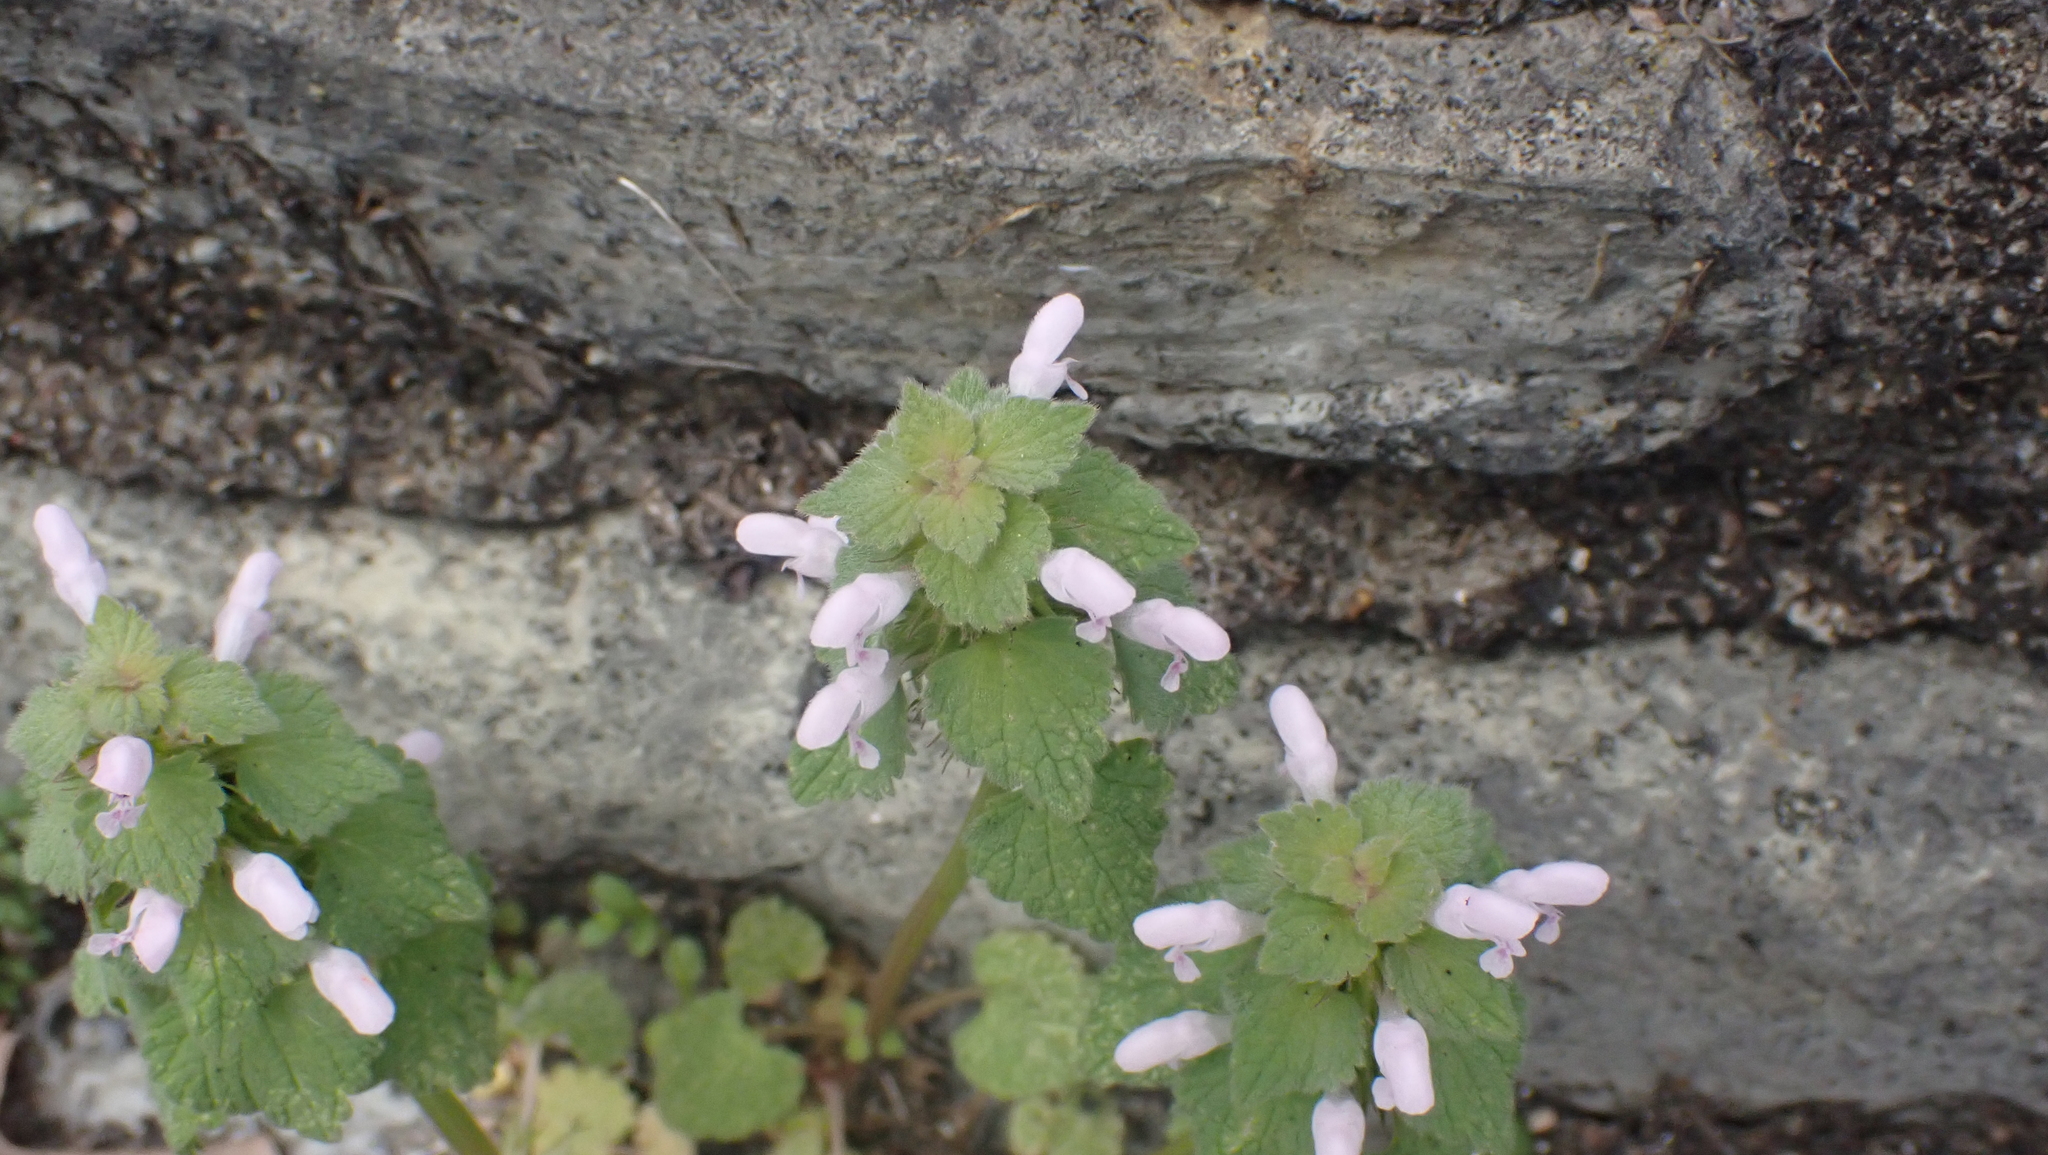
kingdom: Plantae
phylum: Tracheophyta
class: Magnoliopsida
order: Lamiales
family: Lamiaceae
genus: Lamium
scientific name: Lamium purpureum
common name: Red dead-nettle
